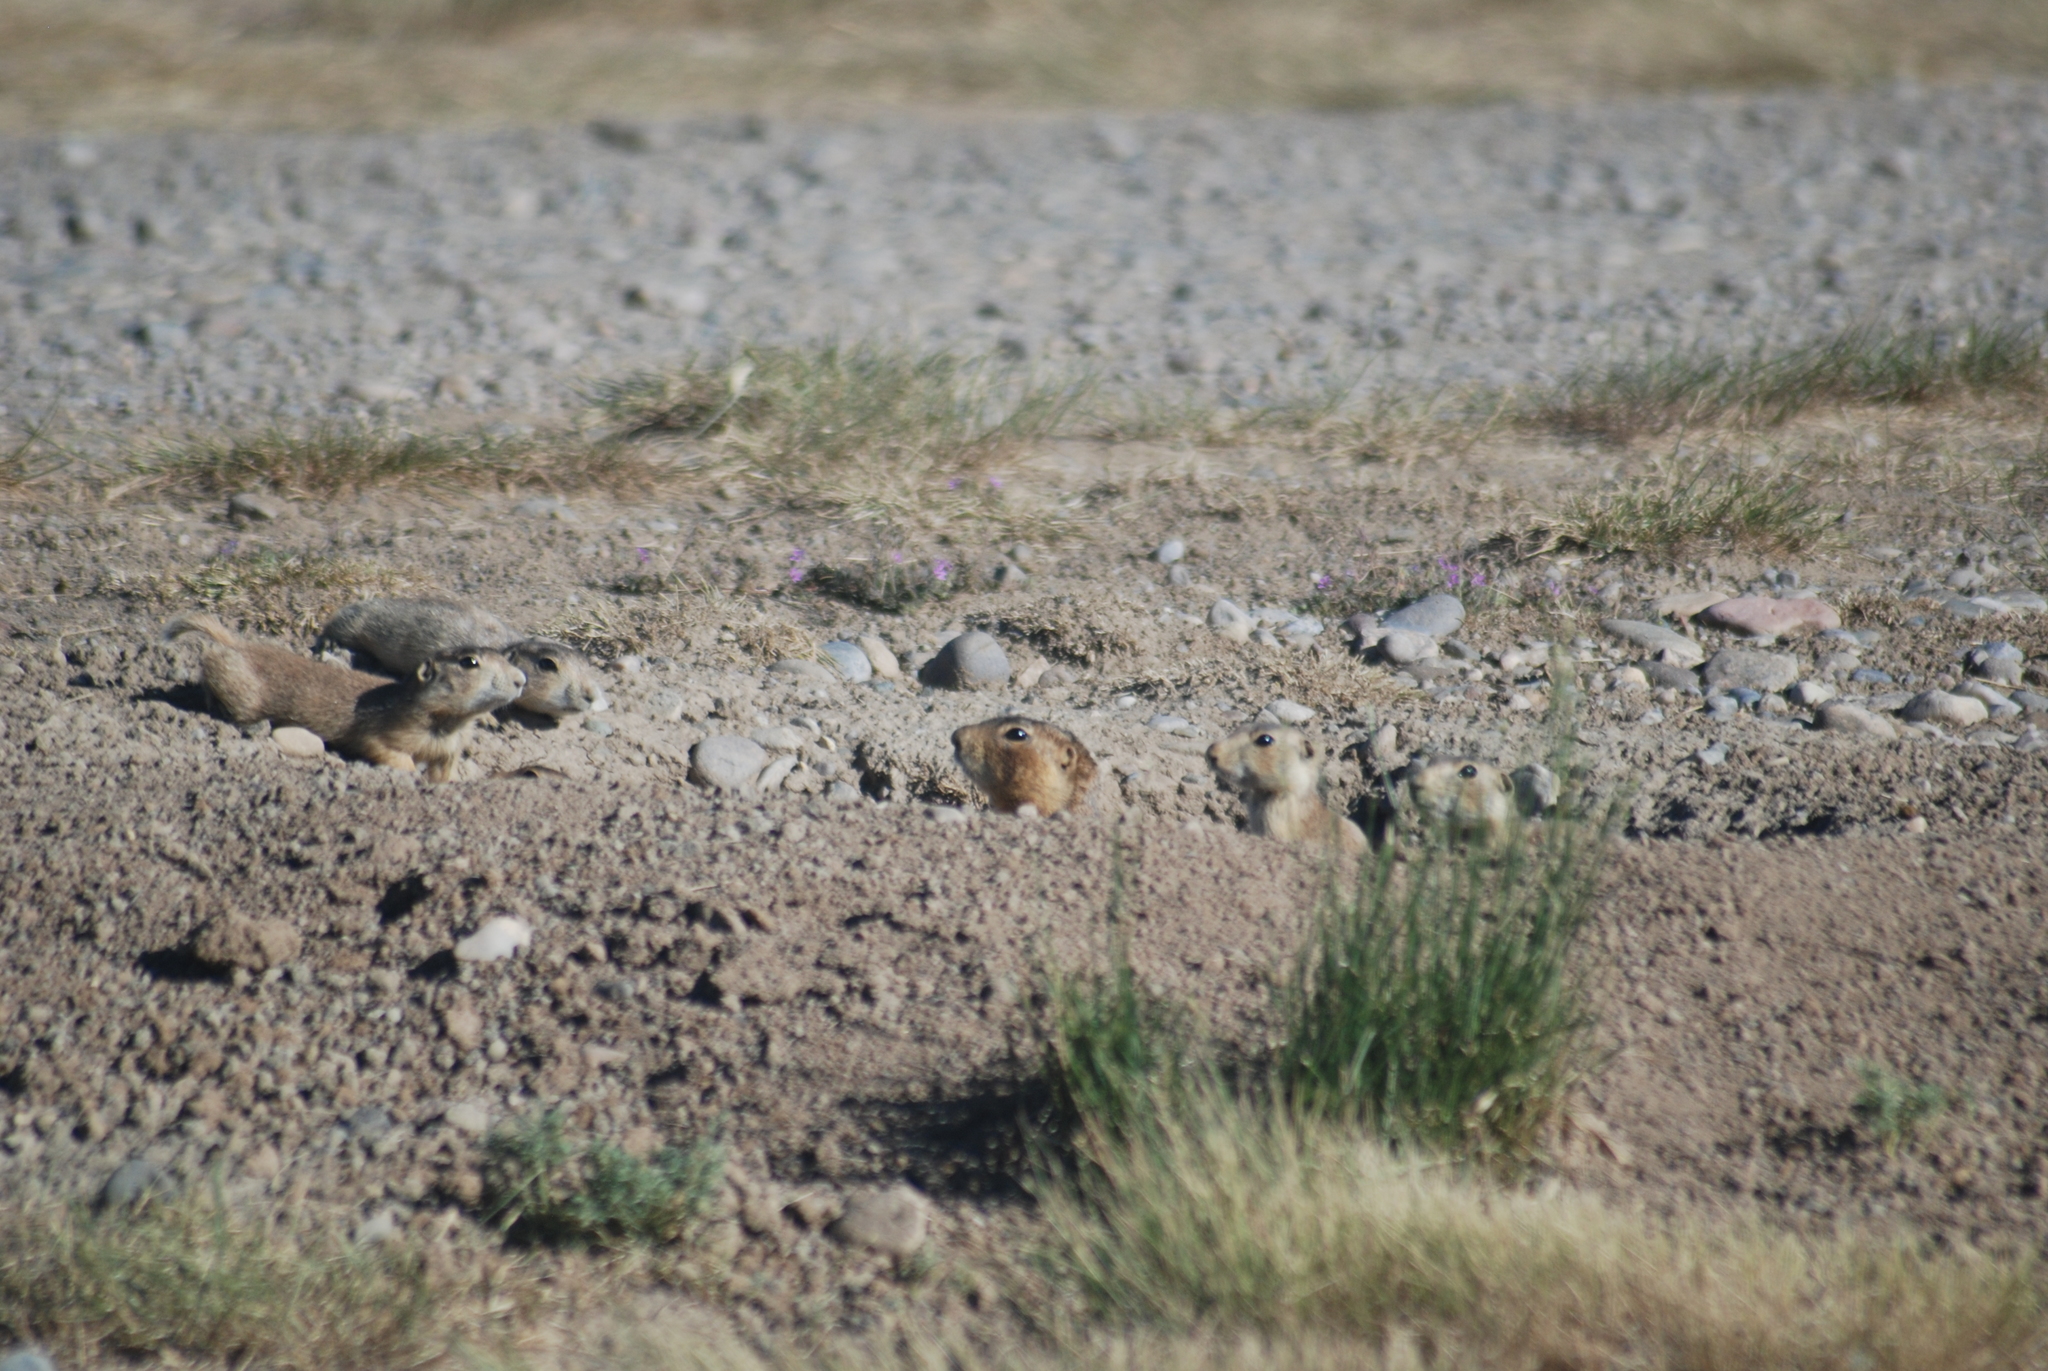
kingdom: Animalia
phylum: Chordata
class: Mammalia
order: Rodentia
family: Sciuridae
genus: Cynomys
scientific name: Cynomys gunnisoni
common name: Gunnison's prairie dog
